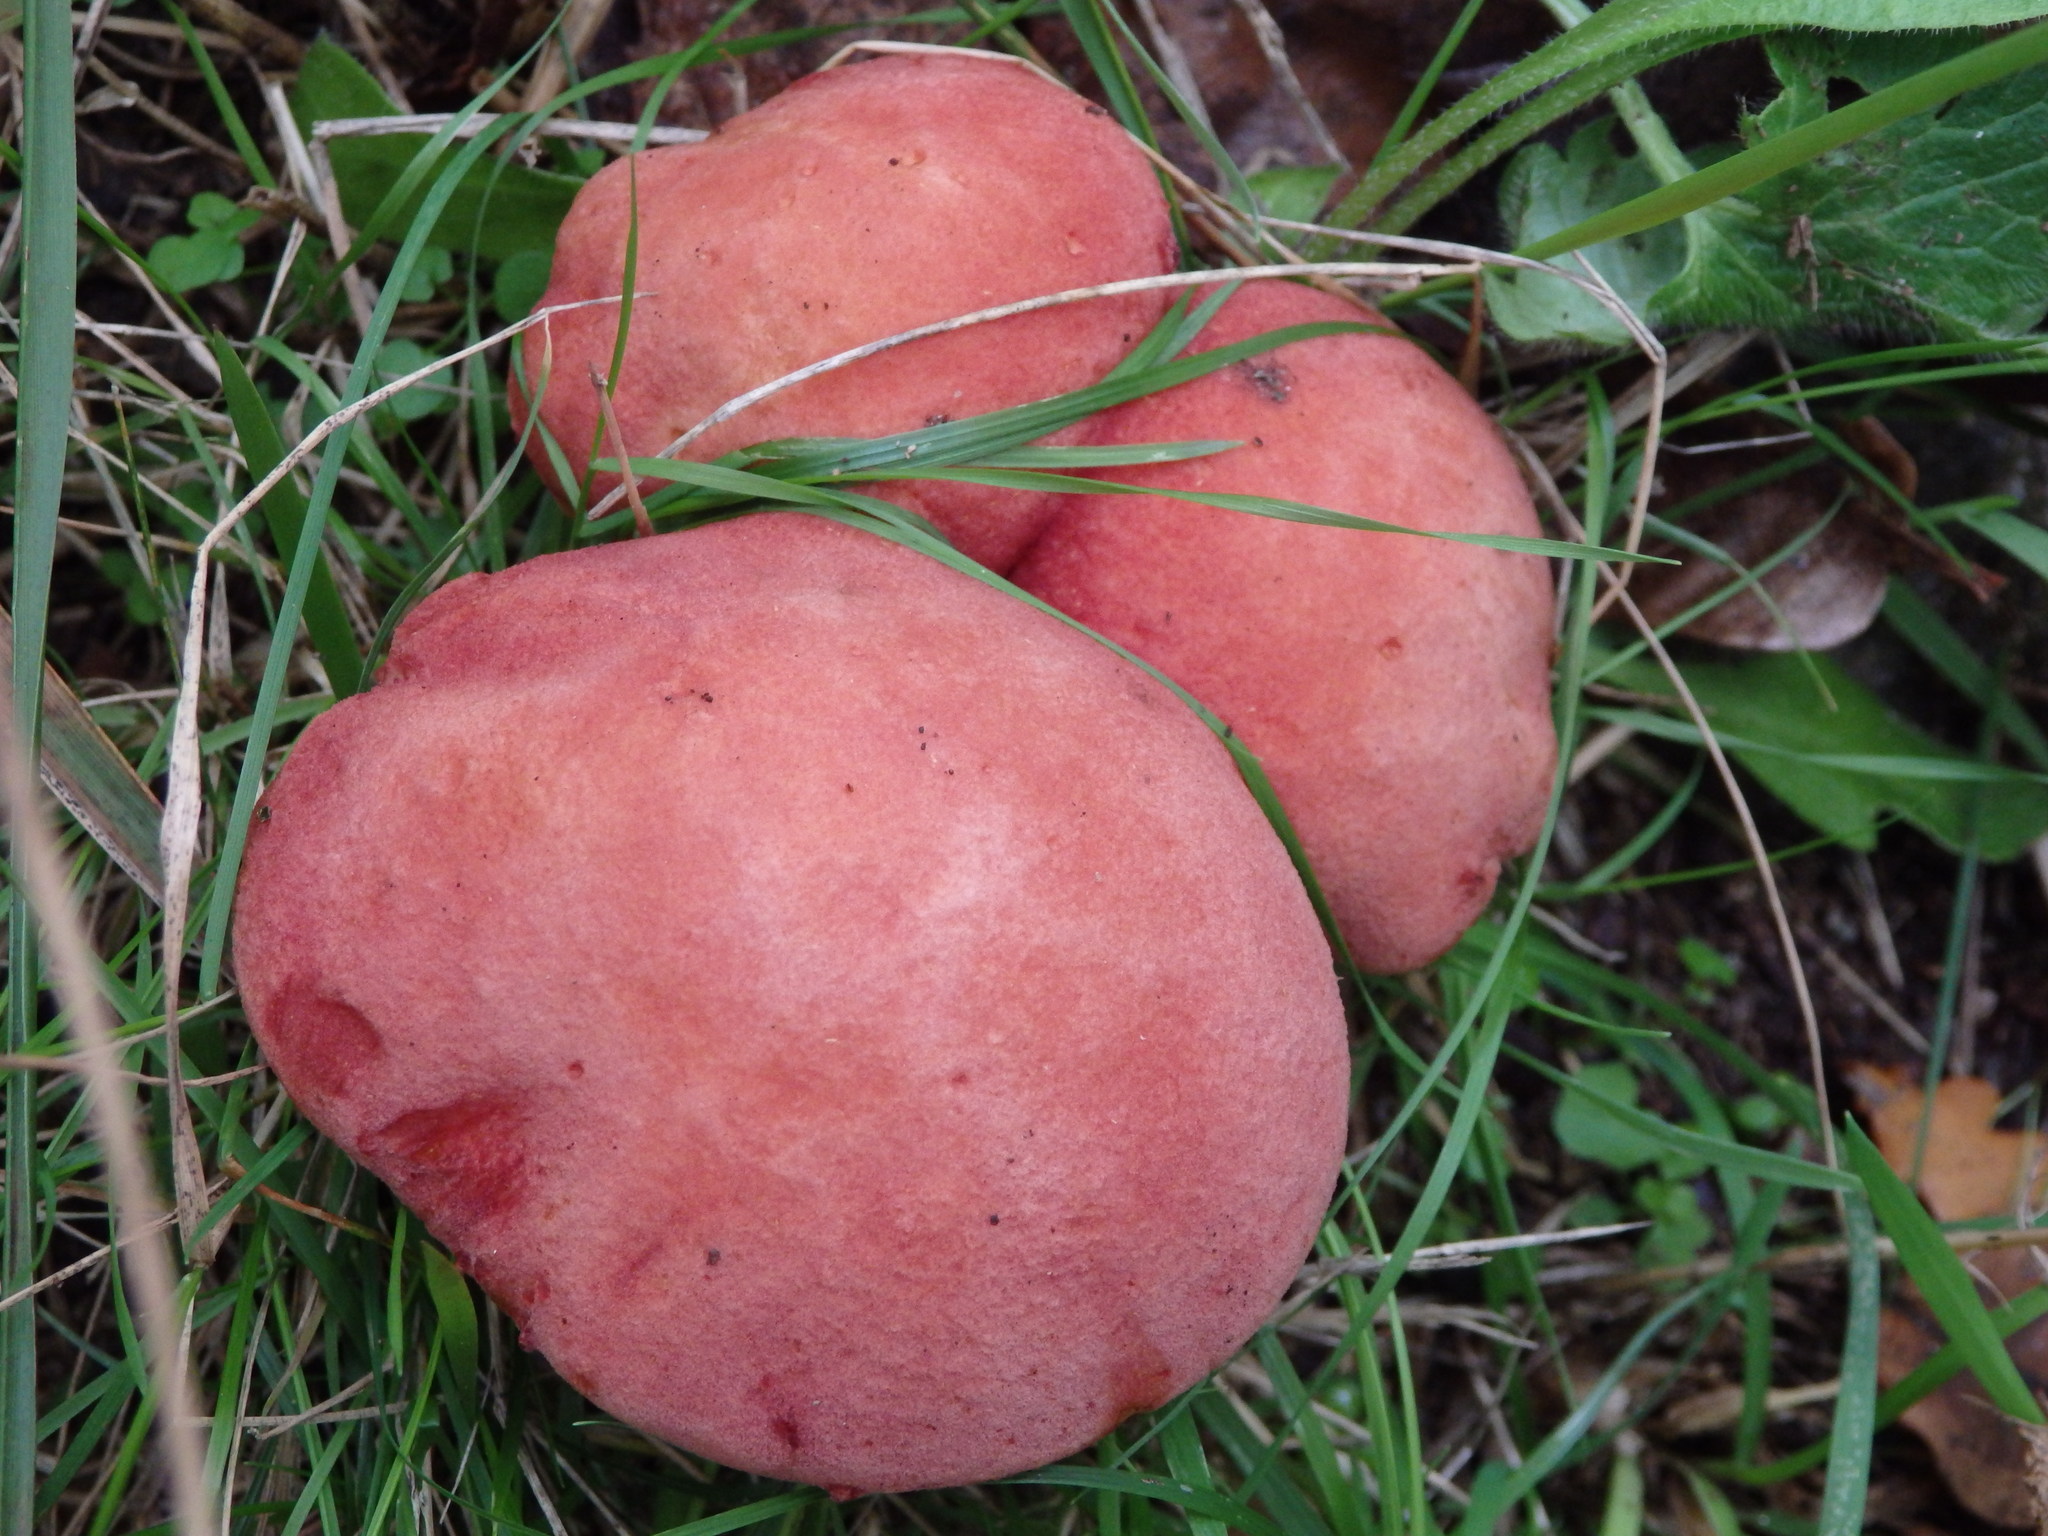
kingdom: Fungi
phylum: Basidiomycota
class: Agaricomycetes
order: Boletales
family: Boletaceae
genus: Hortiboletus
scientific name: Hortiboletus rubellus
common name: Ruby bolete
